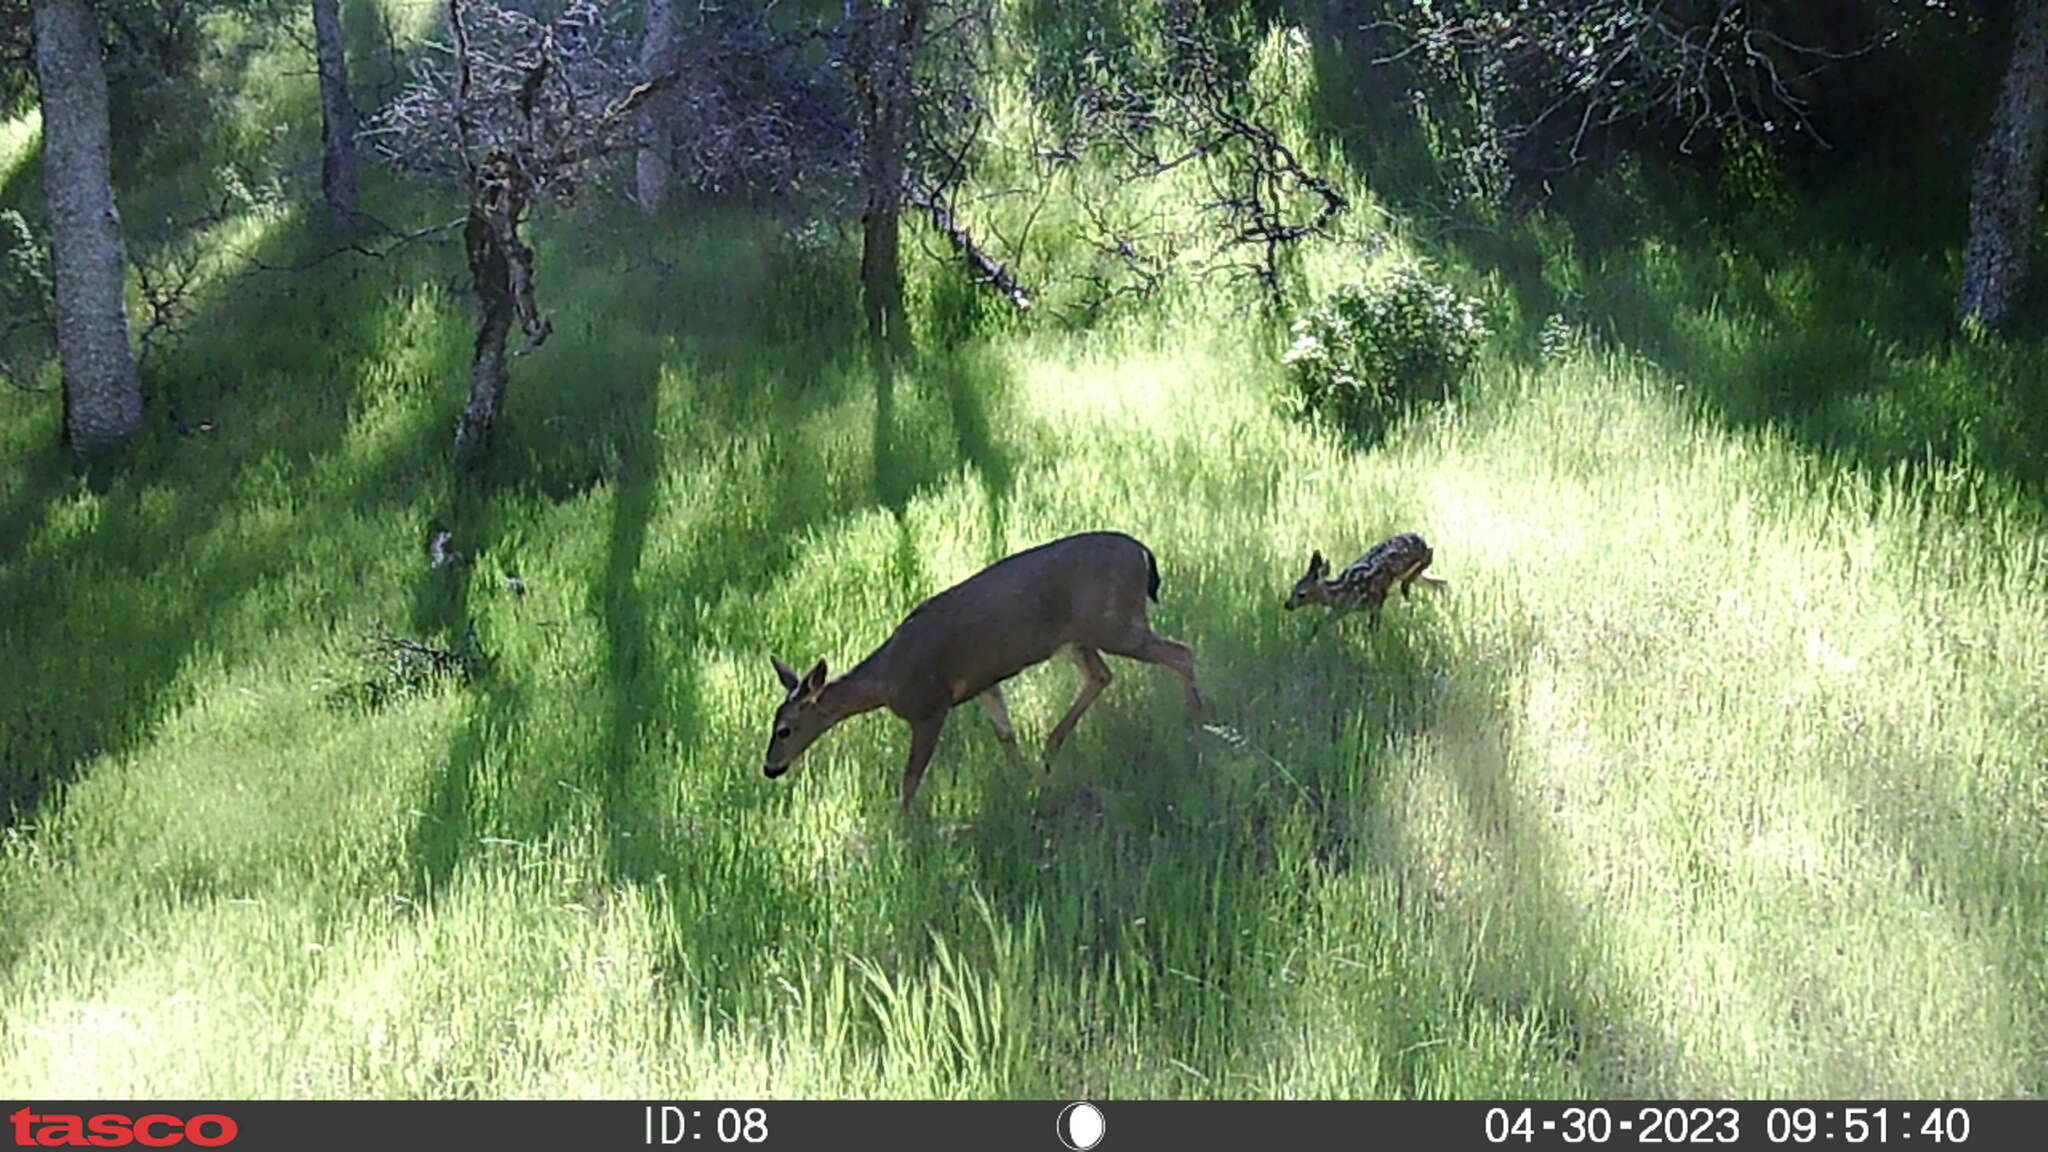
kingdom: Animalia
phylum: Chordata
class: Mammalia
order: Artiodactyla
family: Cervidae
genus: Odocoileus
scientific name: Odocoileus hemionus
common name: Mule deer
